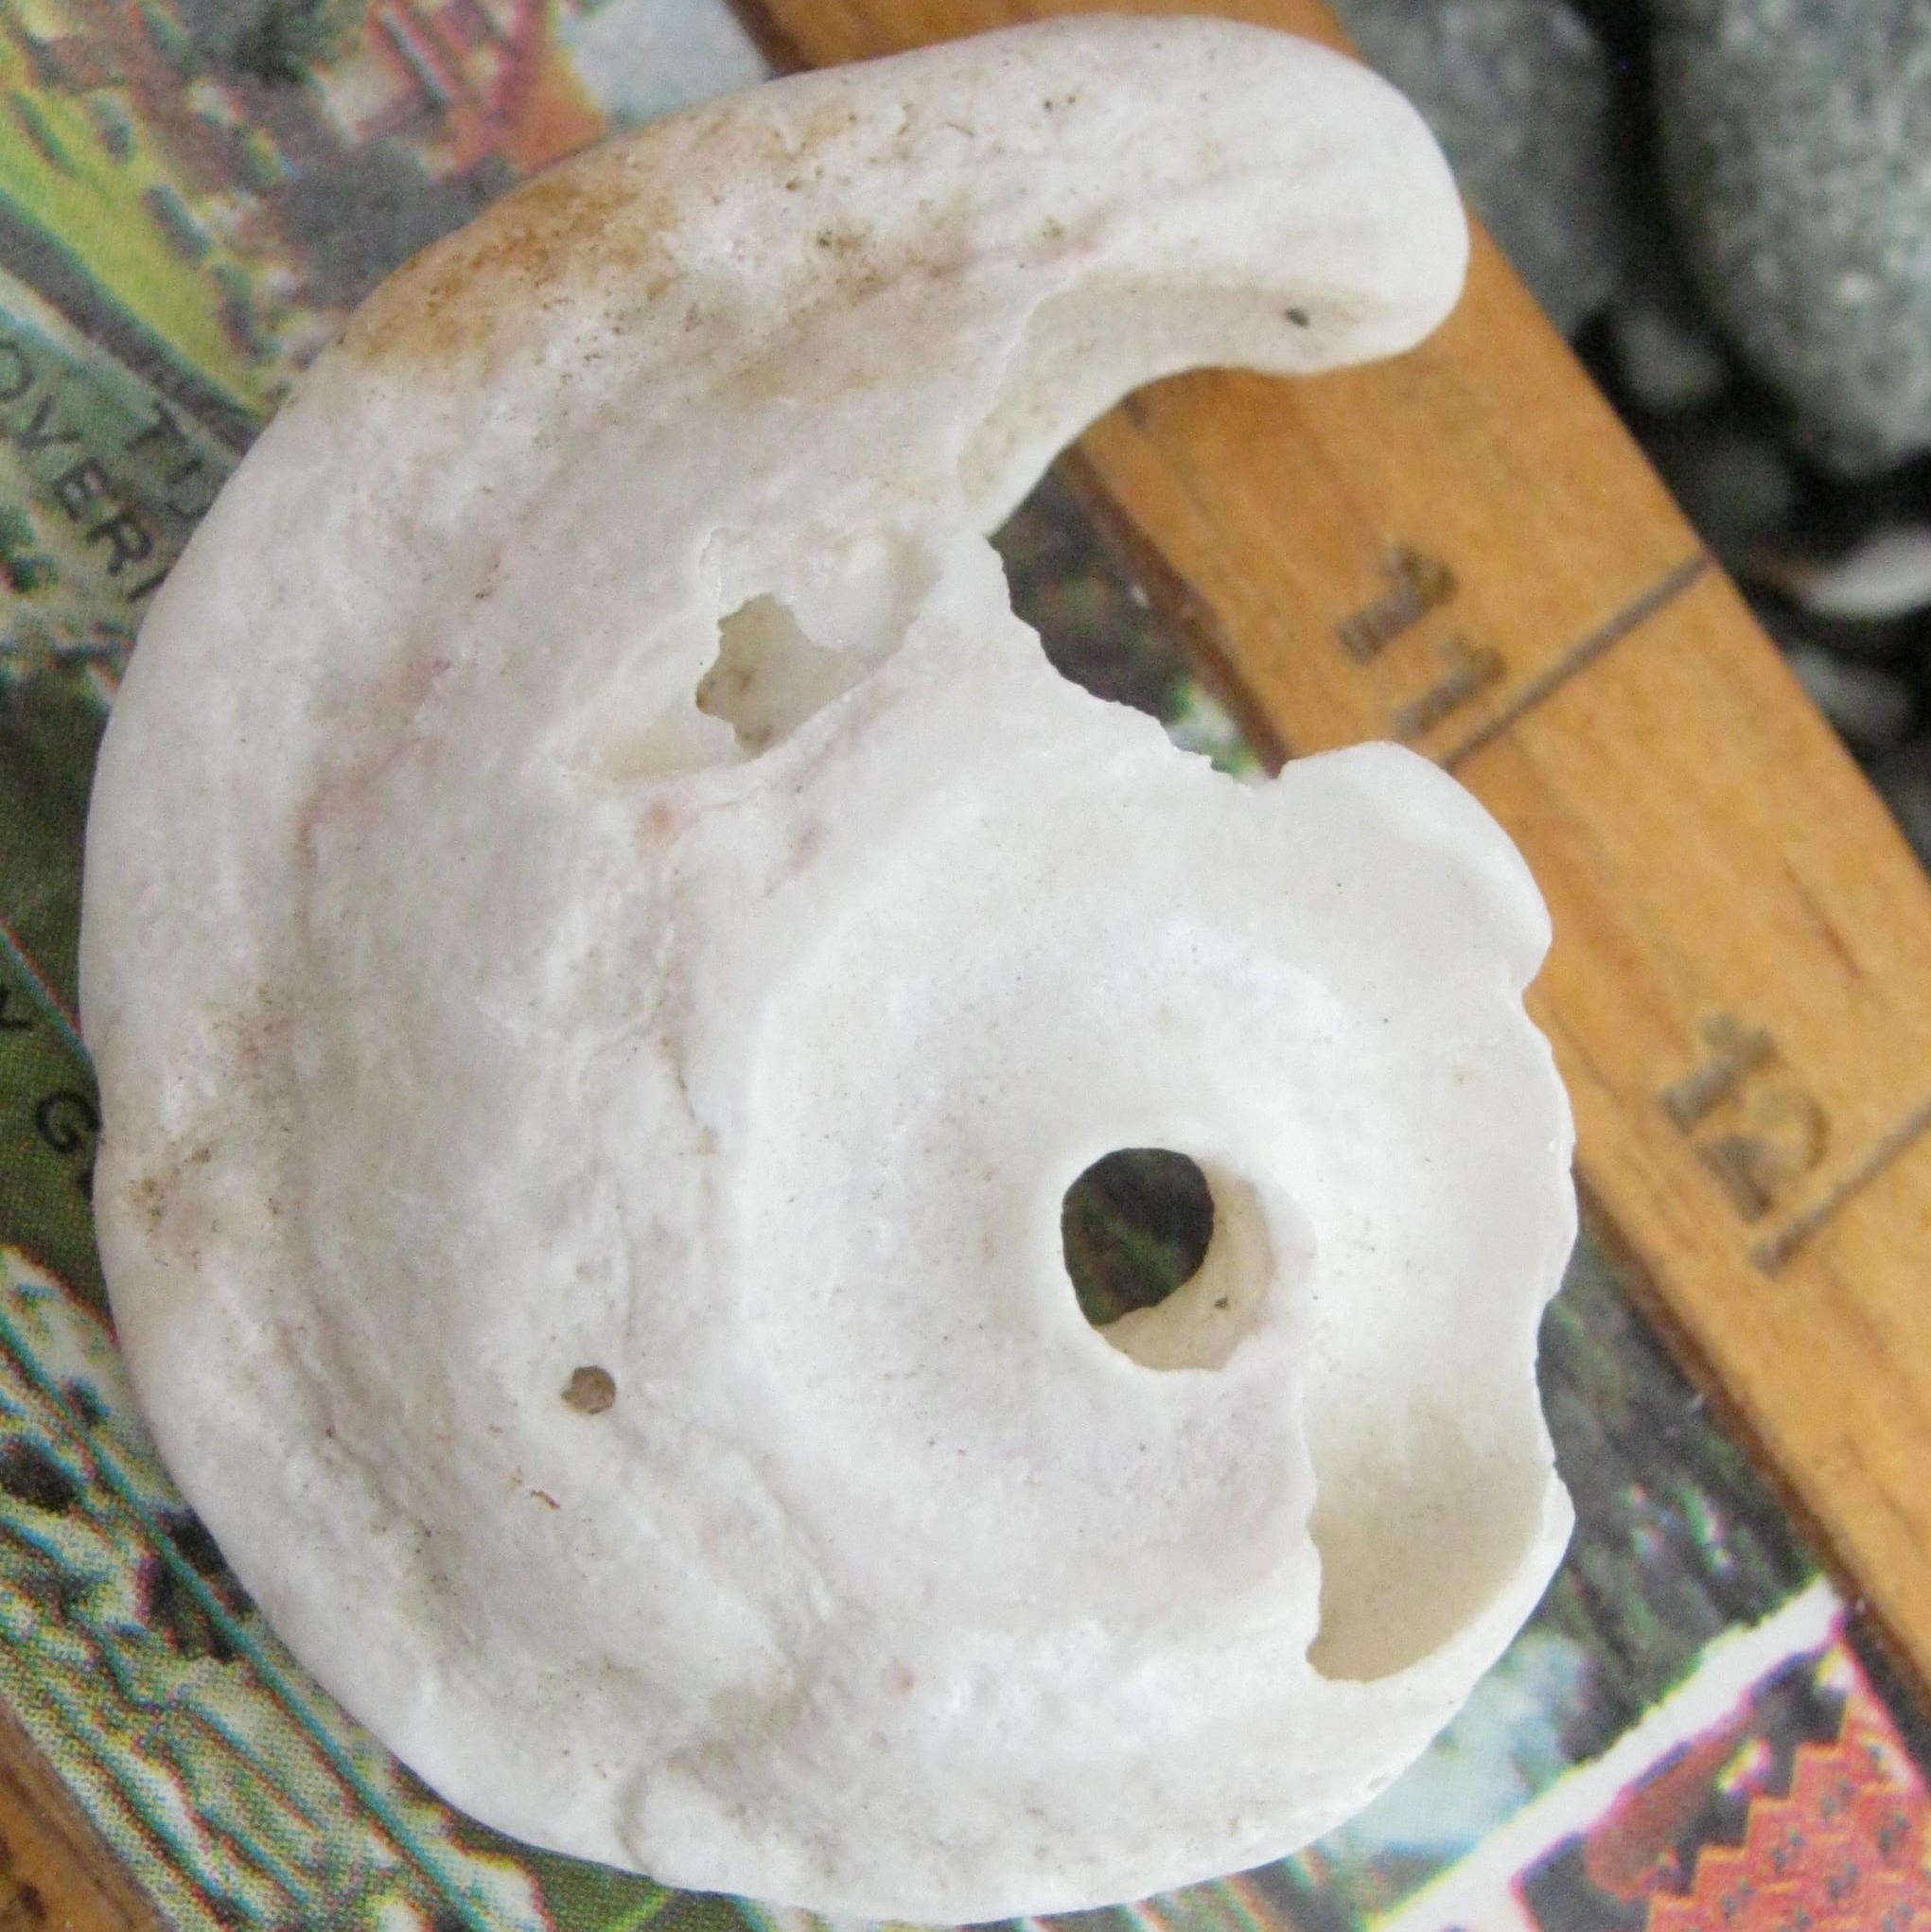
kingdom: Animalia
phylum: Mollusca
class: Gastropoda
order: Trochida
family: Turbinidae
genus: Astraea
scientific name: Astraea heliotropium
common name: Sun shell
